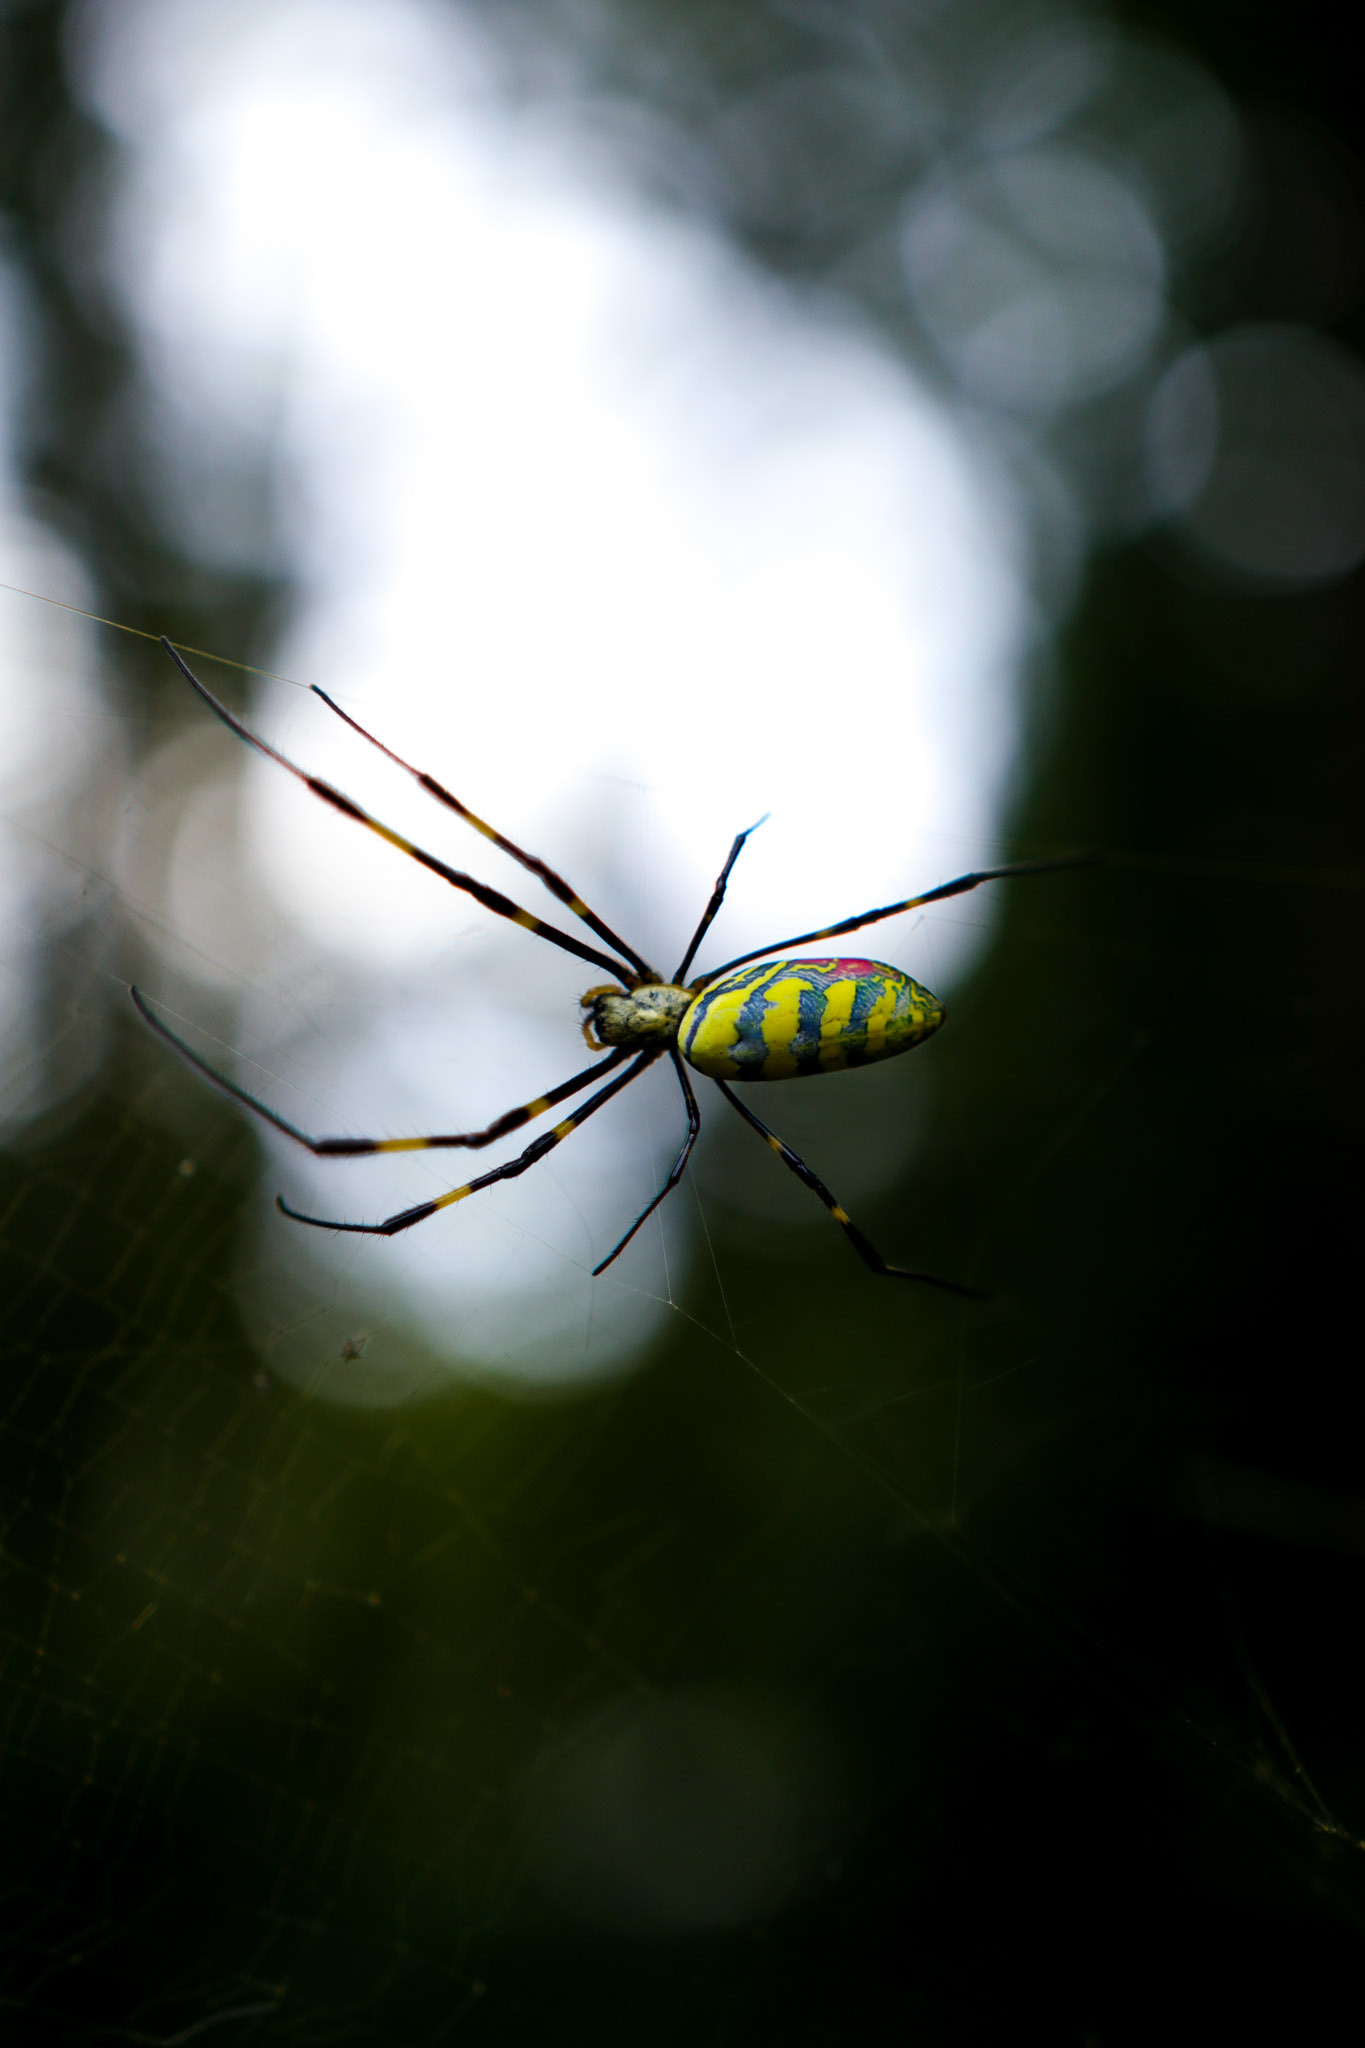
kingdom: Animalia
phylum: Arthropoda
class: Arachnida
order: Araneae
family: Araneidae
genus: Trichonephila
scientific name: Trichonephila clavata
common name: Jorō spider
